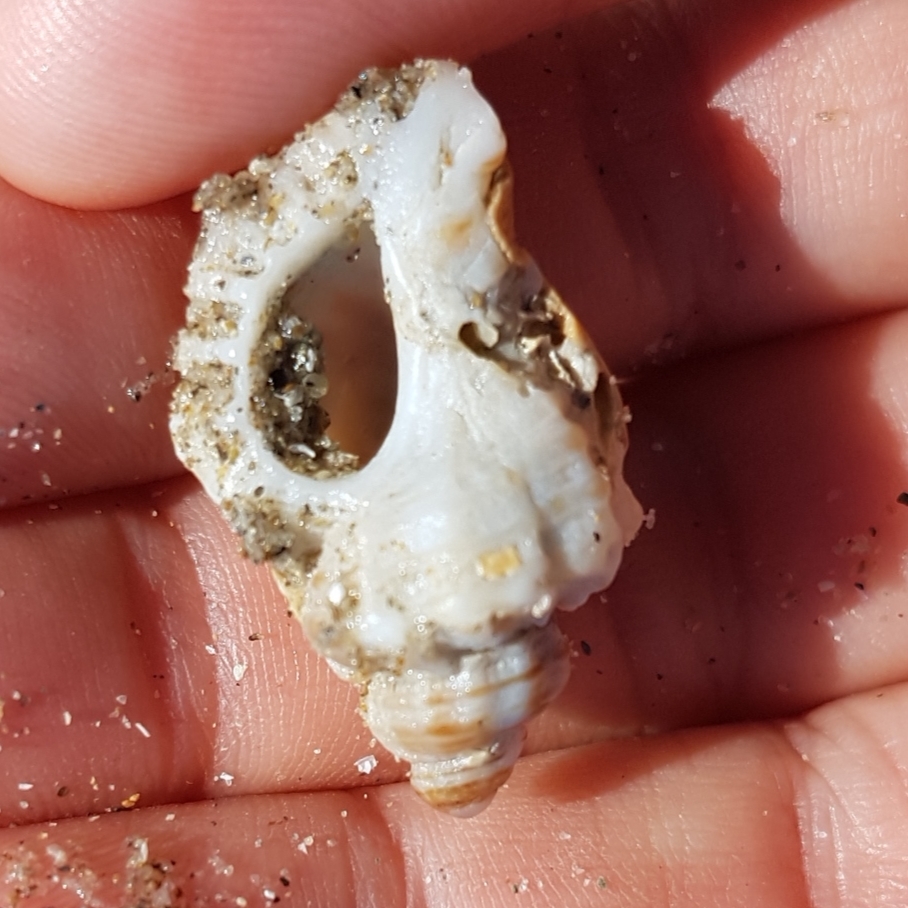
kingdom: Animalia
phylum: Mollusca
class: Gastropoda
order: Neogastropoda
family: Muricidae
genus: Ocenebra
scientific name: Ocenebra erinaceus
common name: European sting winkle
